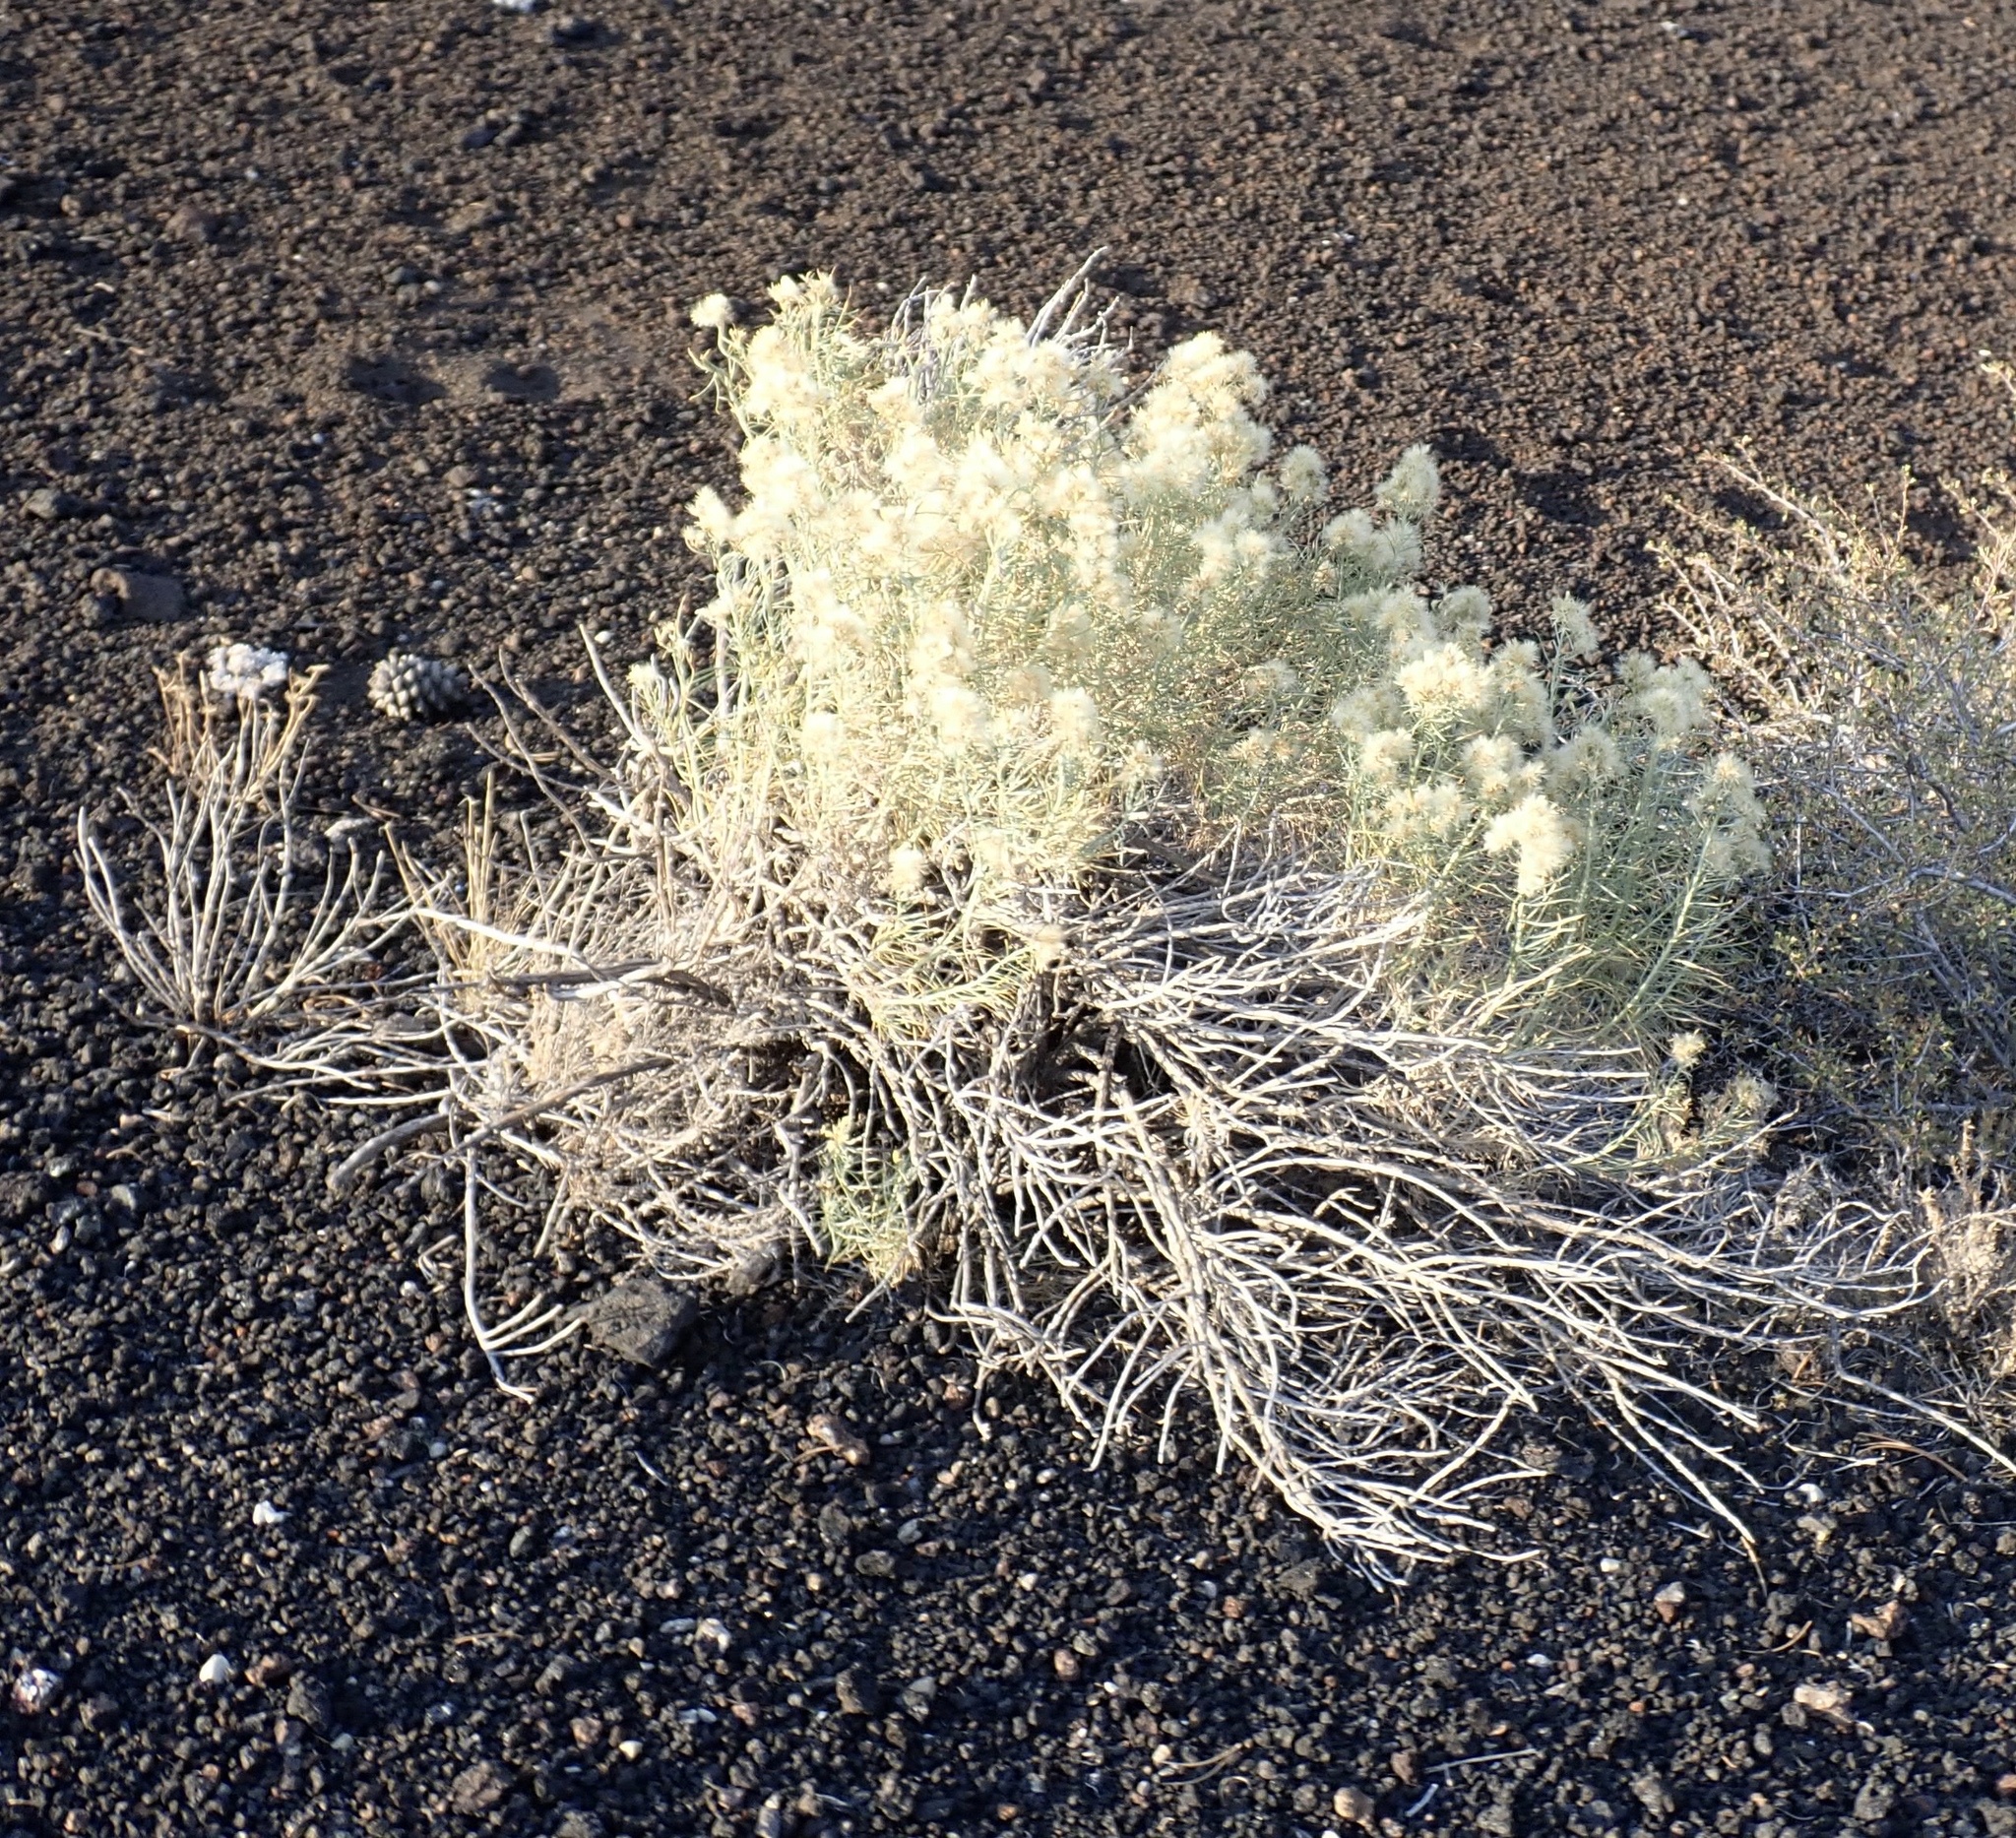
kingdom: Plantae
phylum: Tracheophyta
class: Magnoliopsida
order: Asterales
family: Asteraceae
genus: Ericameria
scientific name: Ericameria nauseosa
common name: Rubber rabbitbrush
